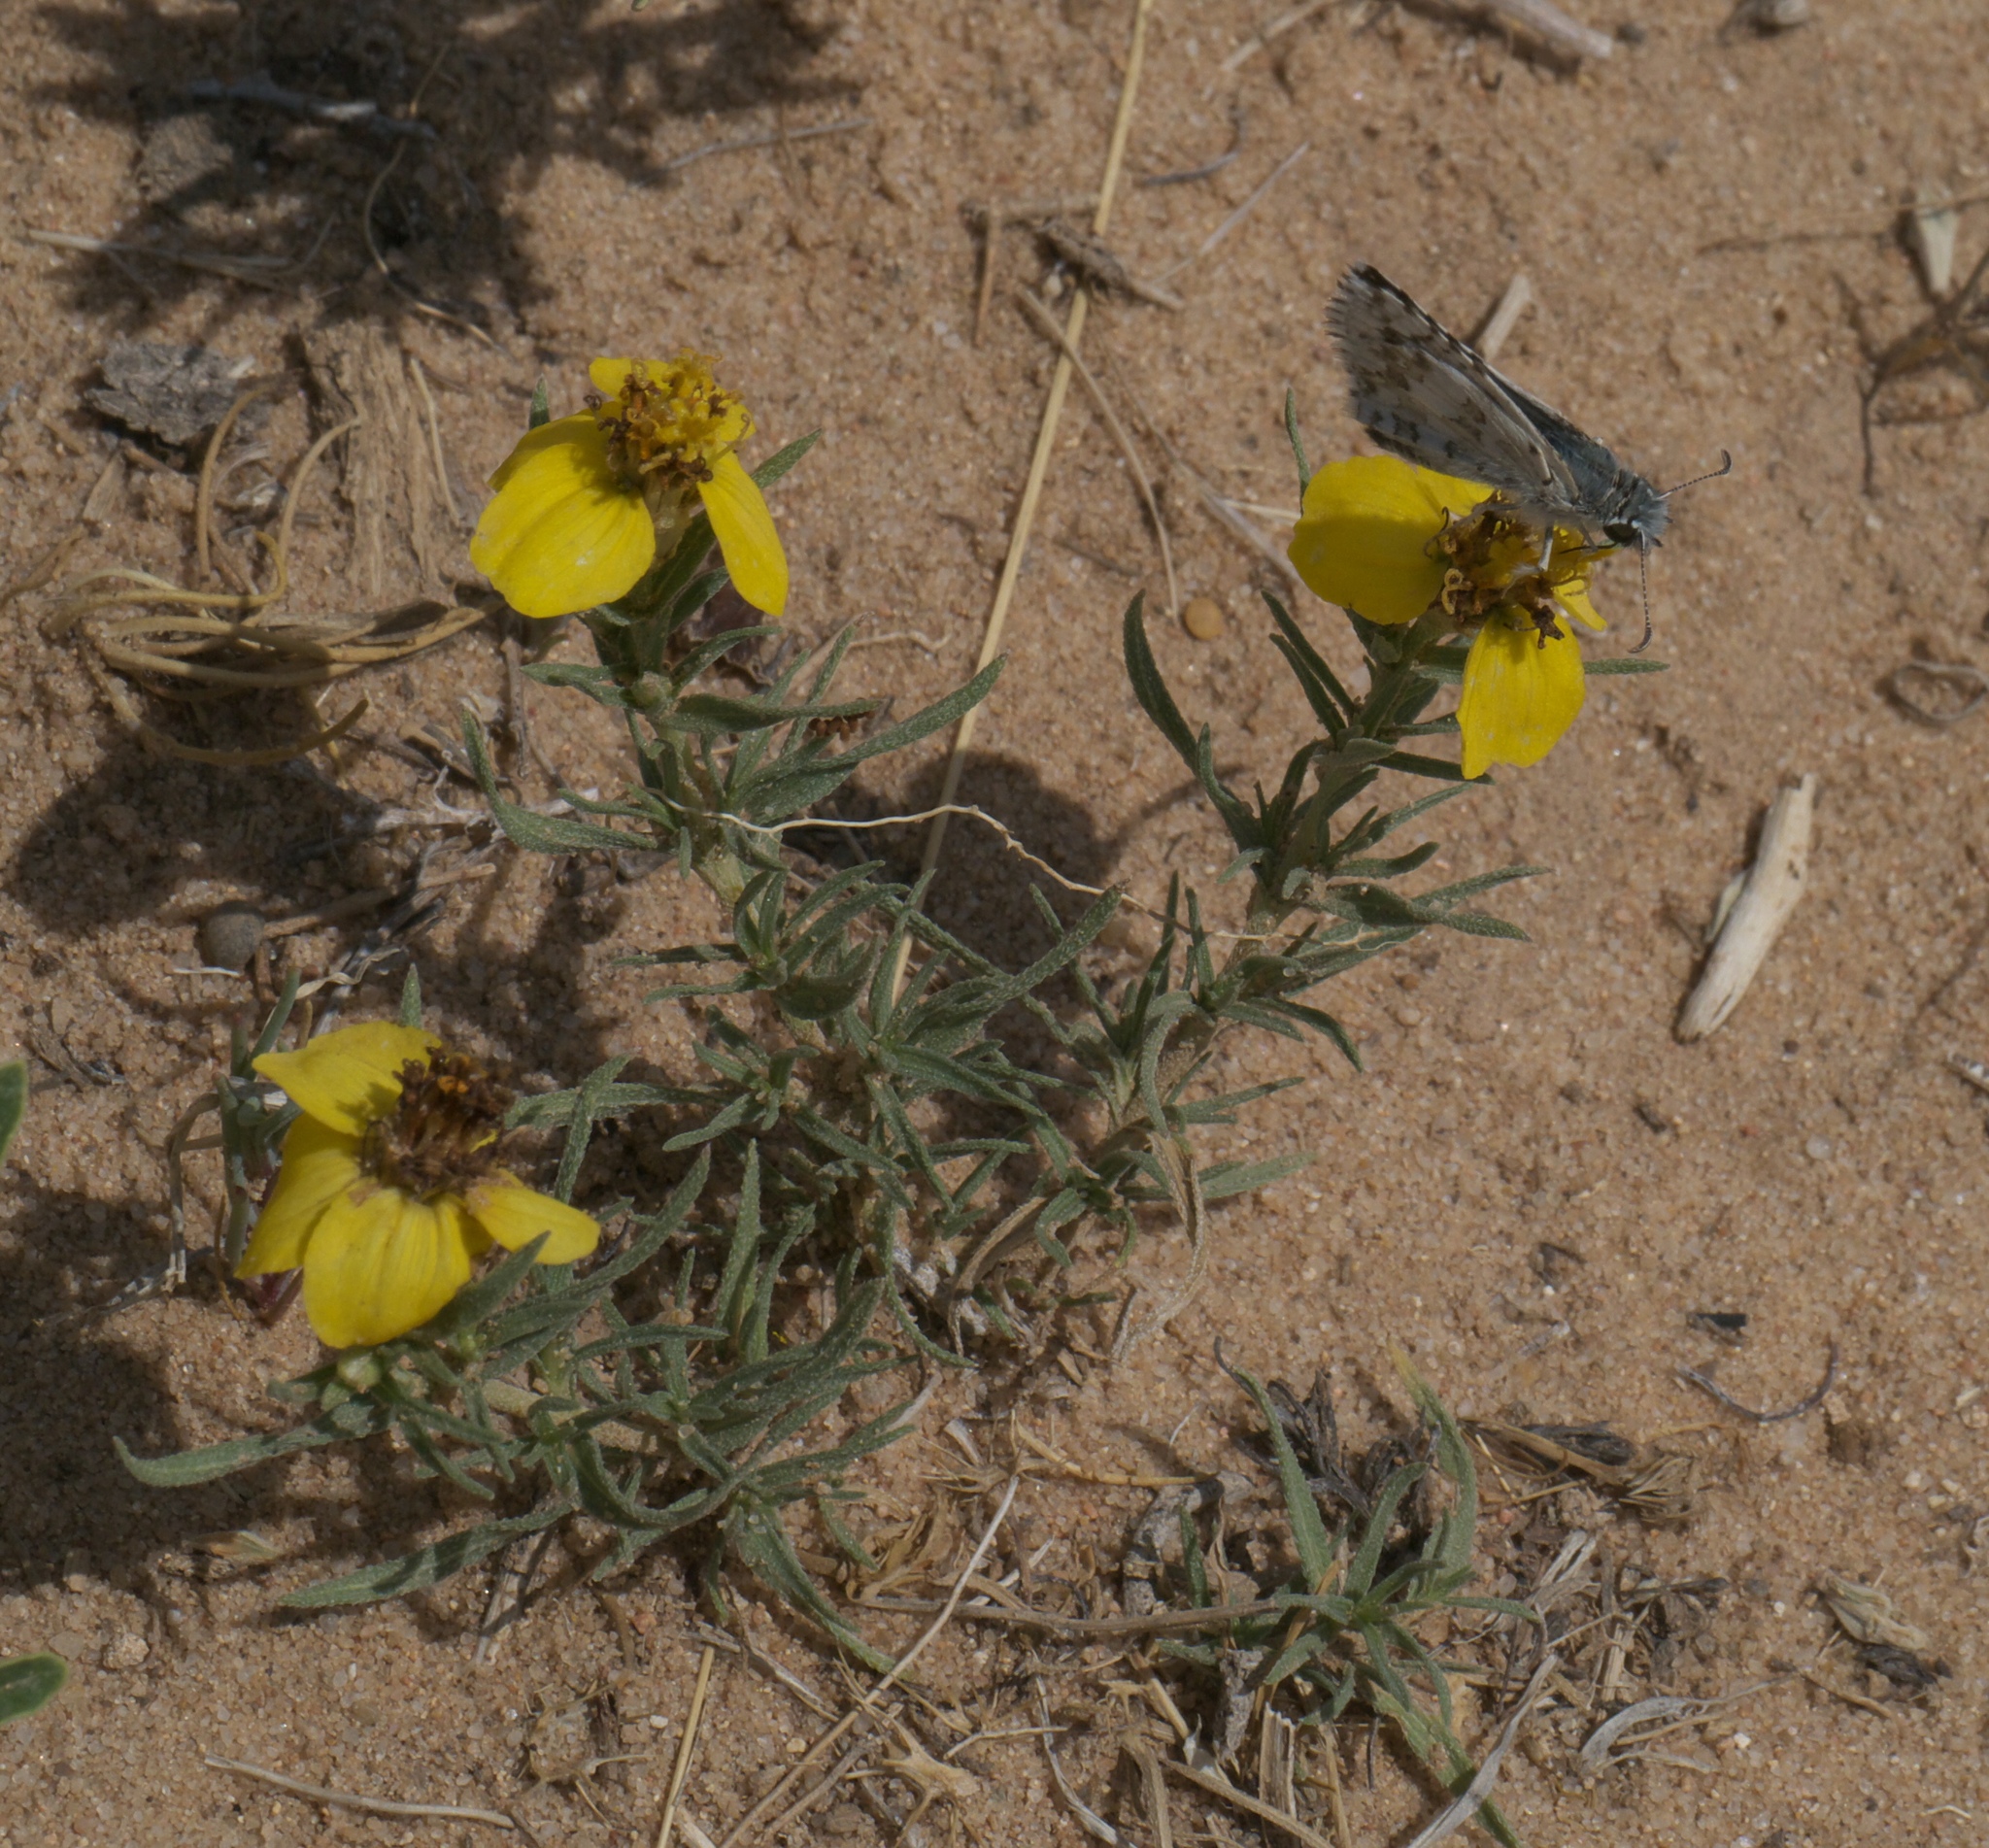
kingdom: Plantae
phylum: Tracheophyta
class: Magnoliopsida
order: Asterales
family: Asteraceae
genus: Zinnia
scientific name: Zinnia grandiflora
